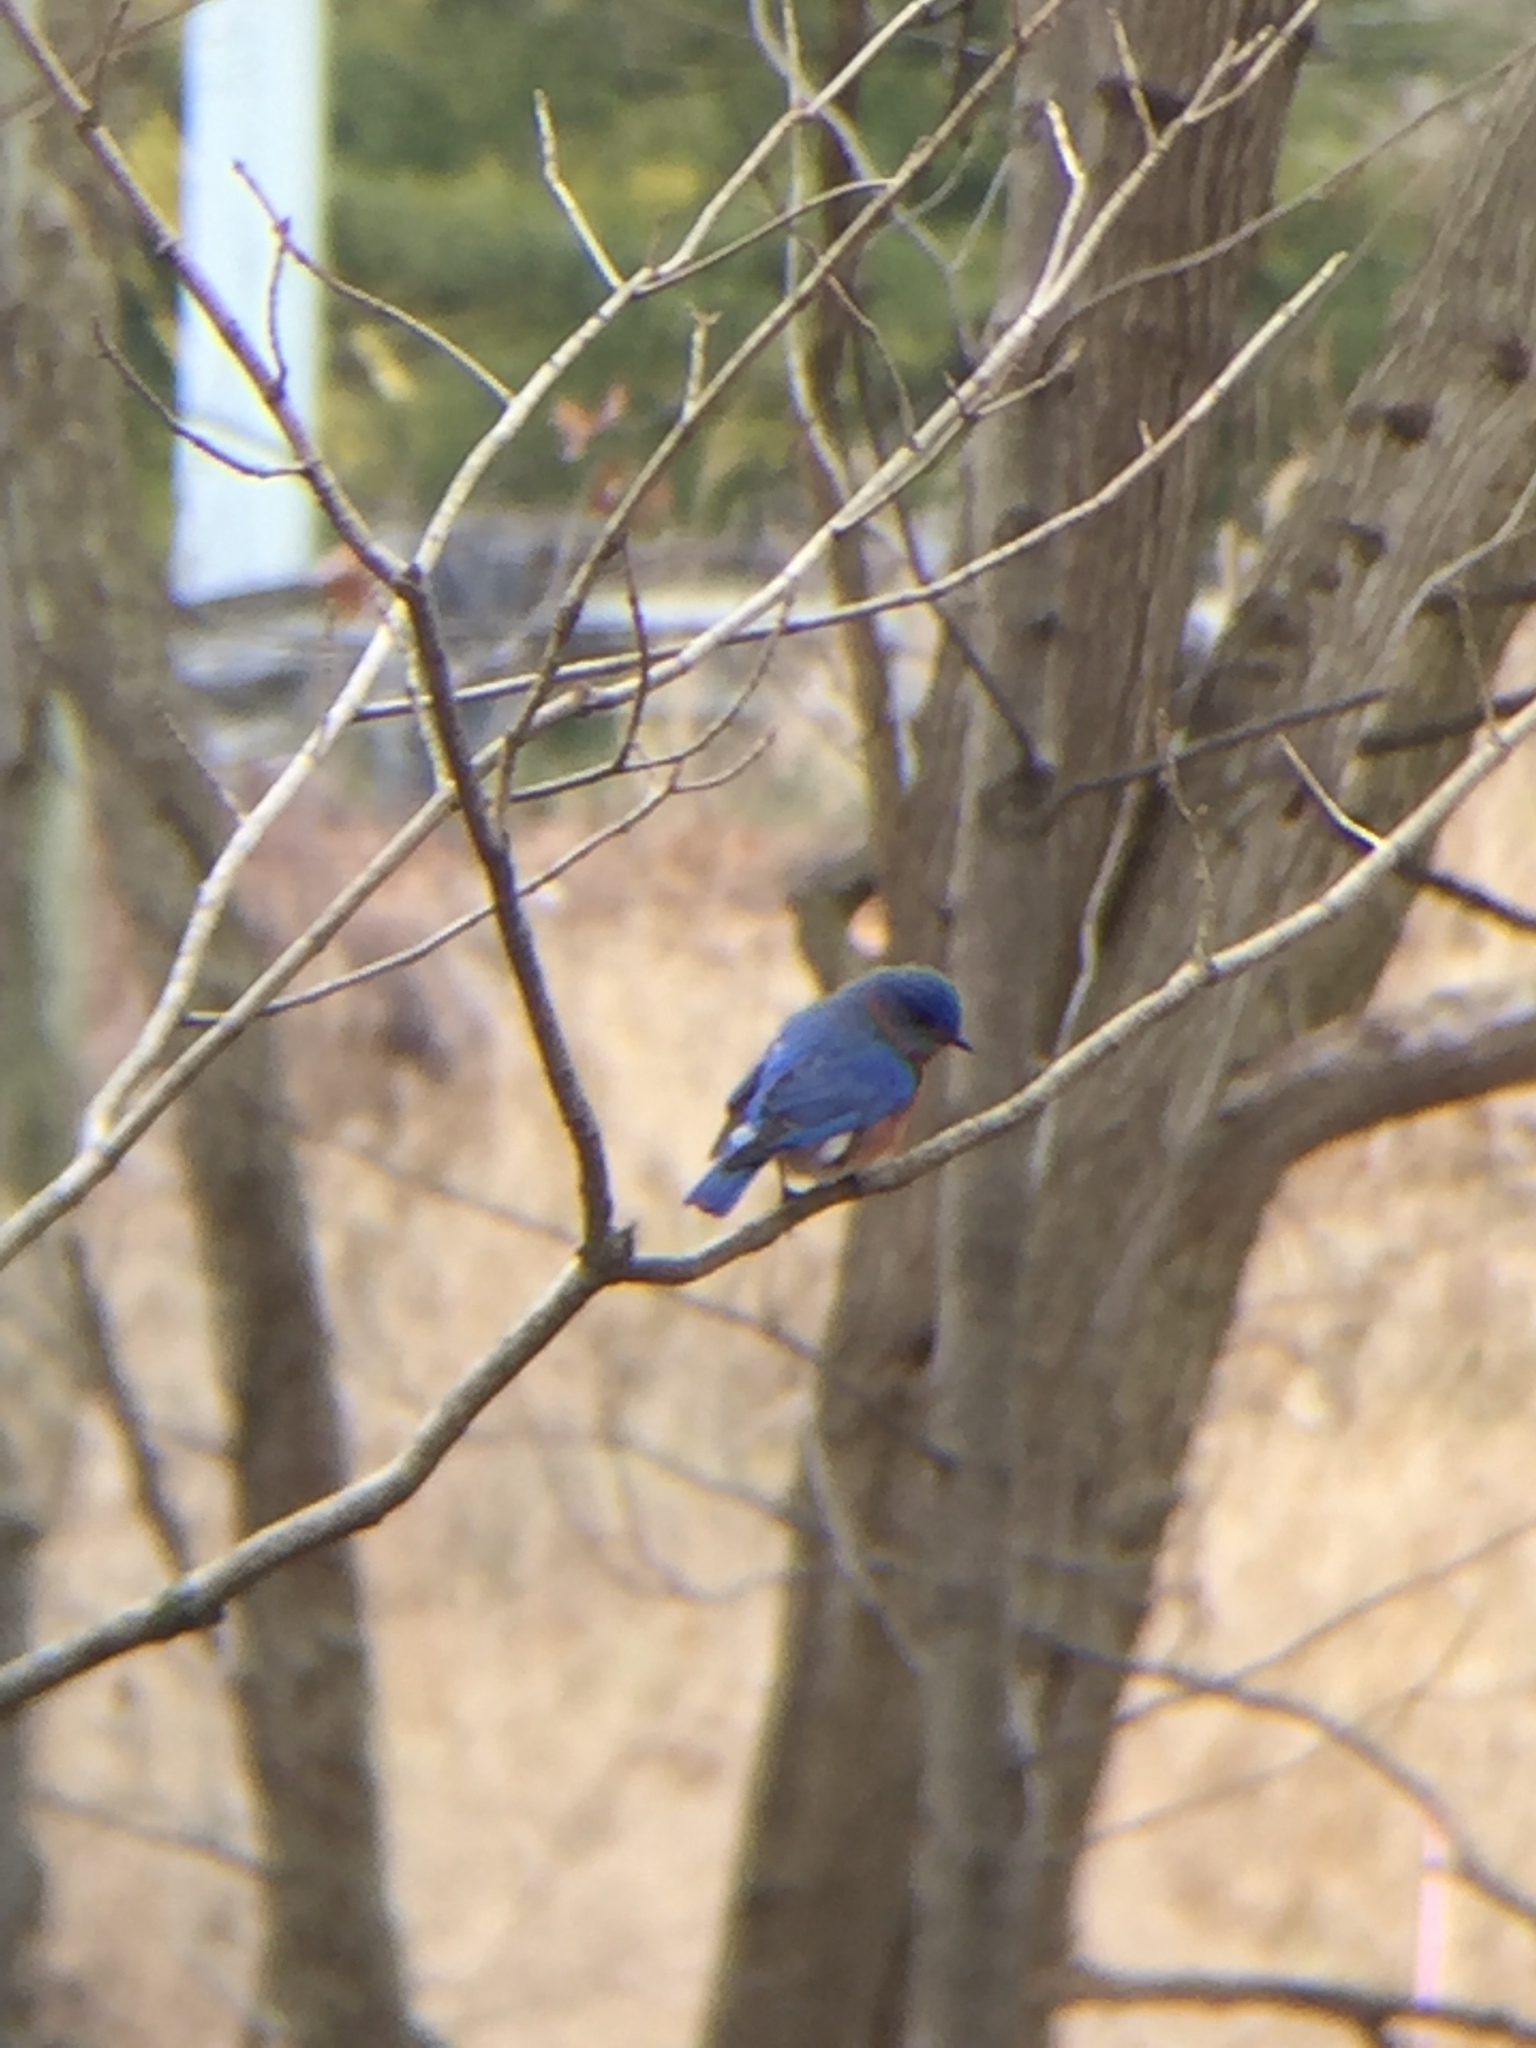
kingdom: Animalia
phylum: Chordata
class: Aves
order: Passeriformes
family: Turdidae
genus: Sialia
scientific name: Sialia sialis
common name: Eastern bluebird
